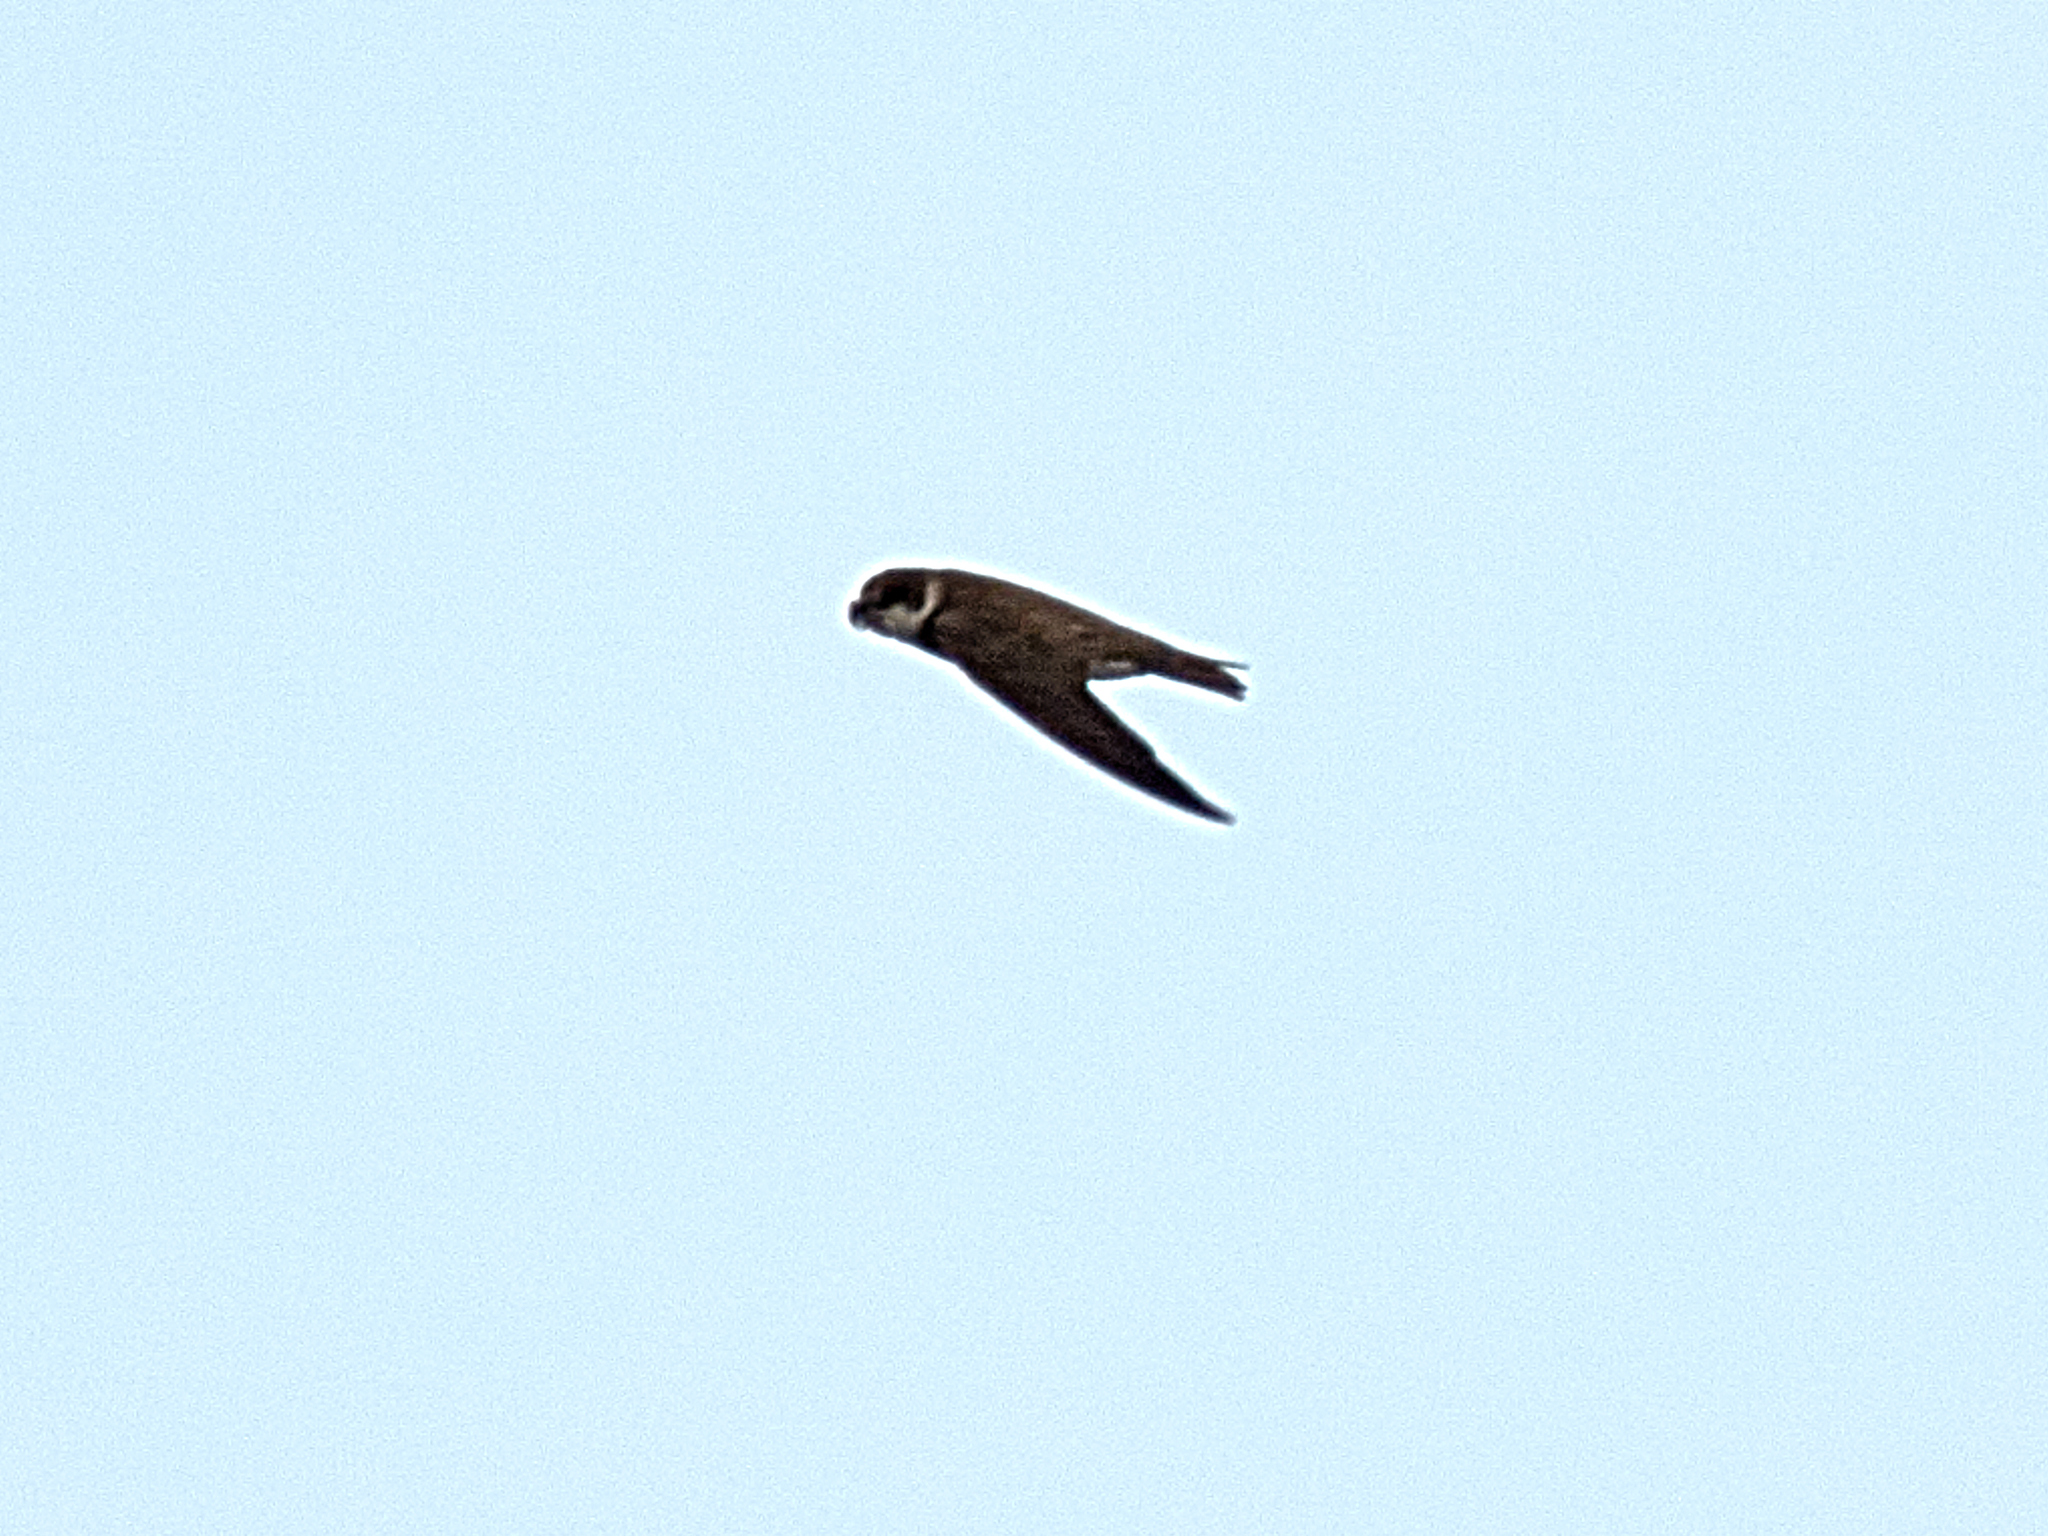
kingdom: Animalia
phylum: Chordata
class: Aves
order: Passeriformes
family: Hirundinidae
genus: Riparia
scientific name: Riparia riparia
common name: Sand martin
